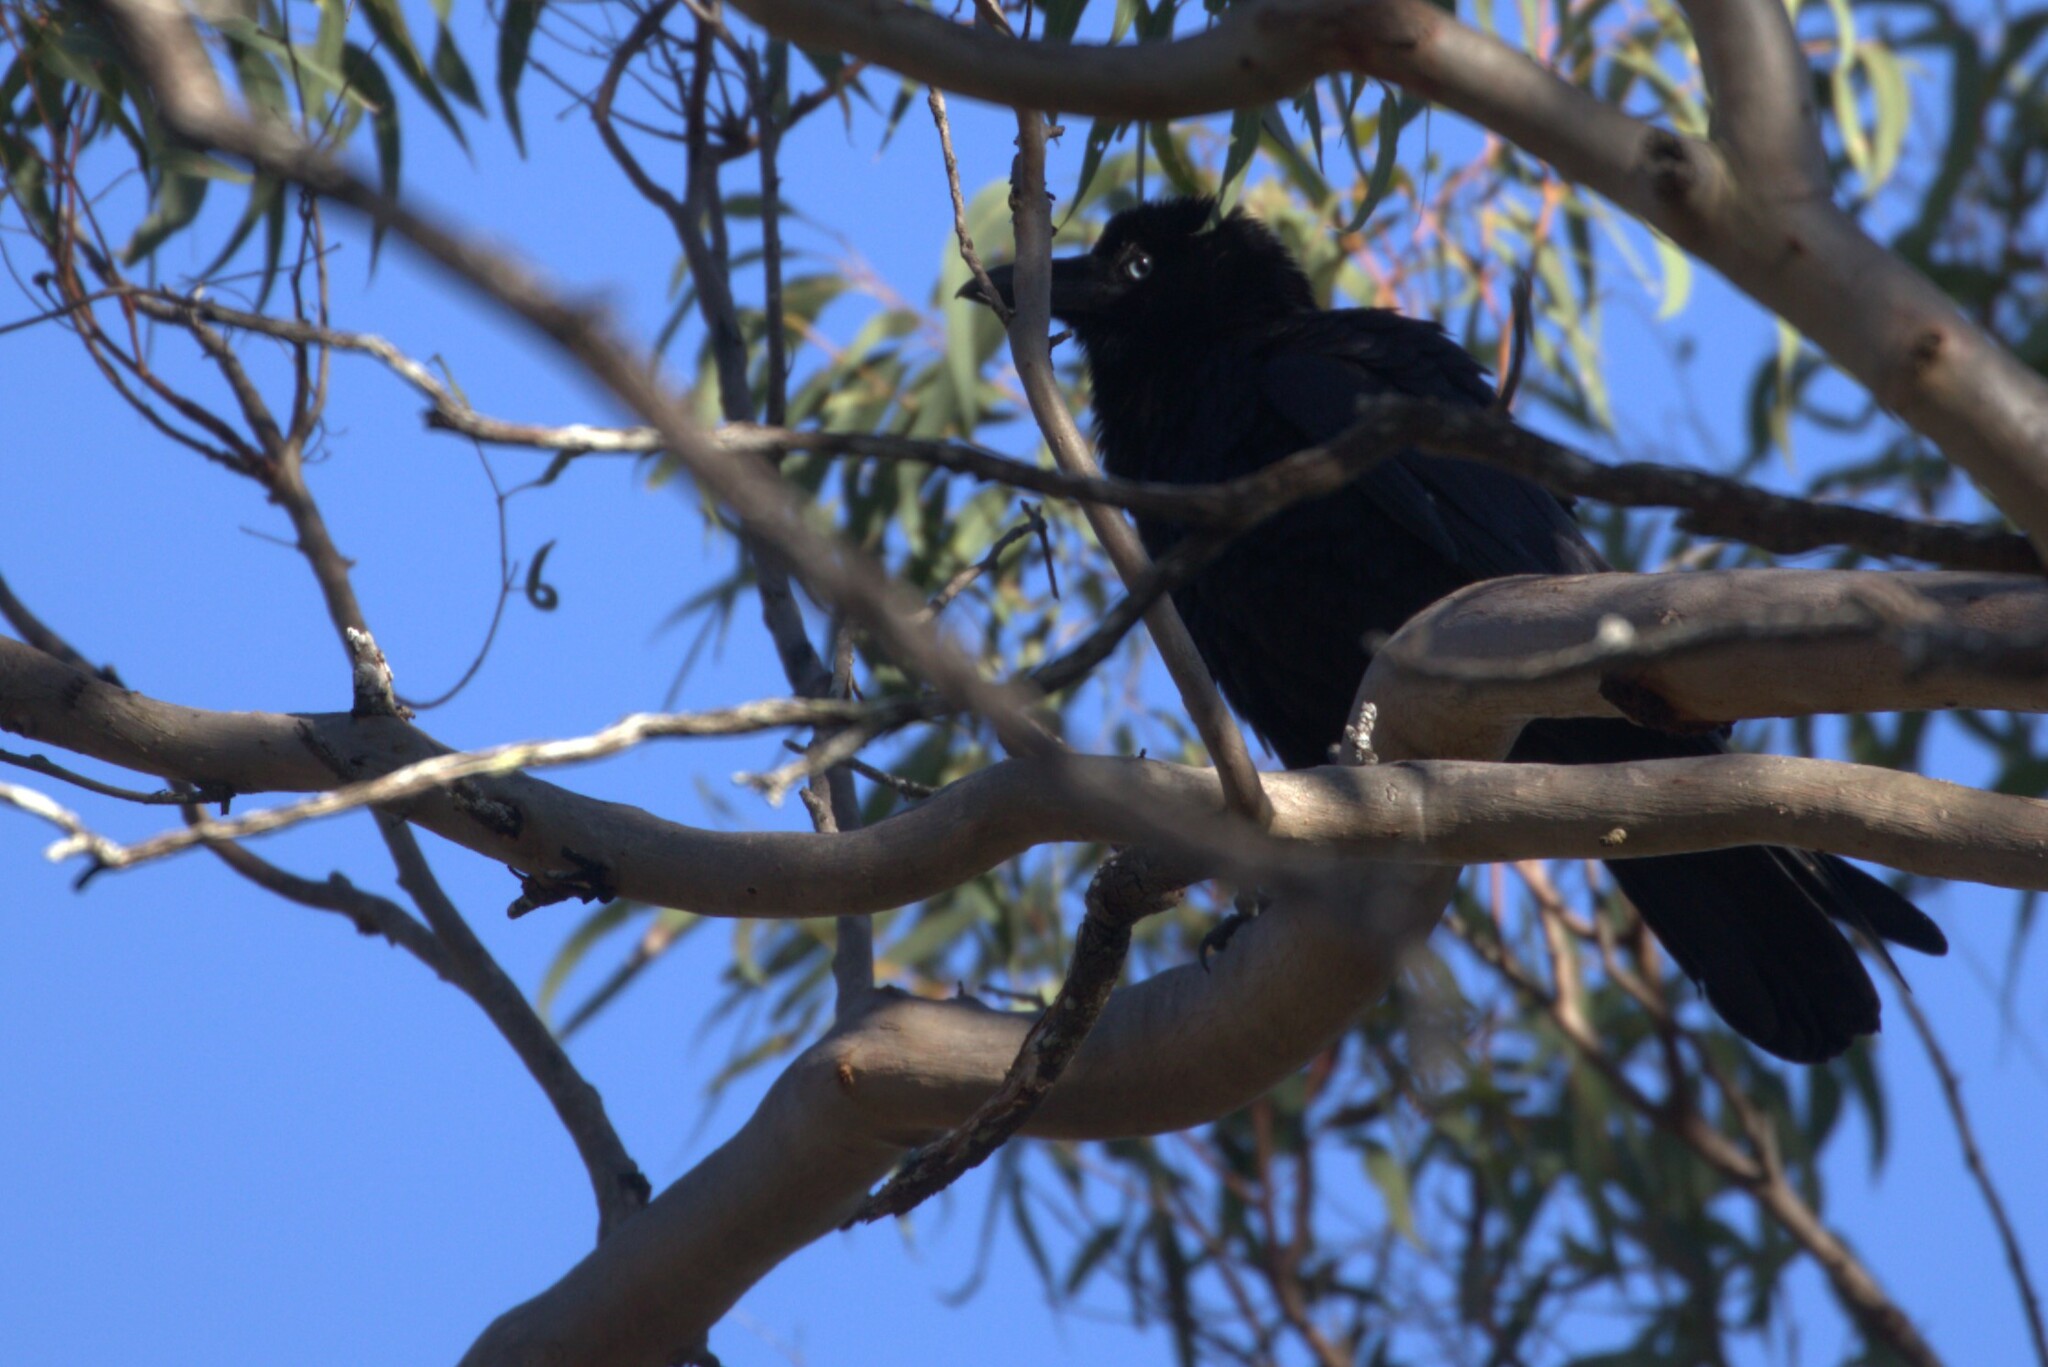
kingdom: Animalia
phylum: Chordata
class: Aves
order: Passeriformes
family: Corvidae
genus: Corvus
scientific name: Corvus orru
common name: Torresian crow
